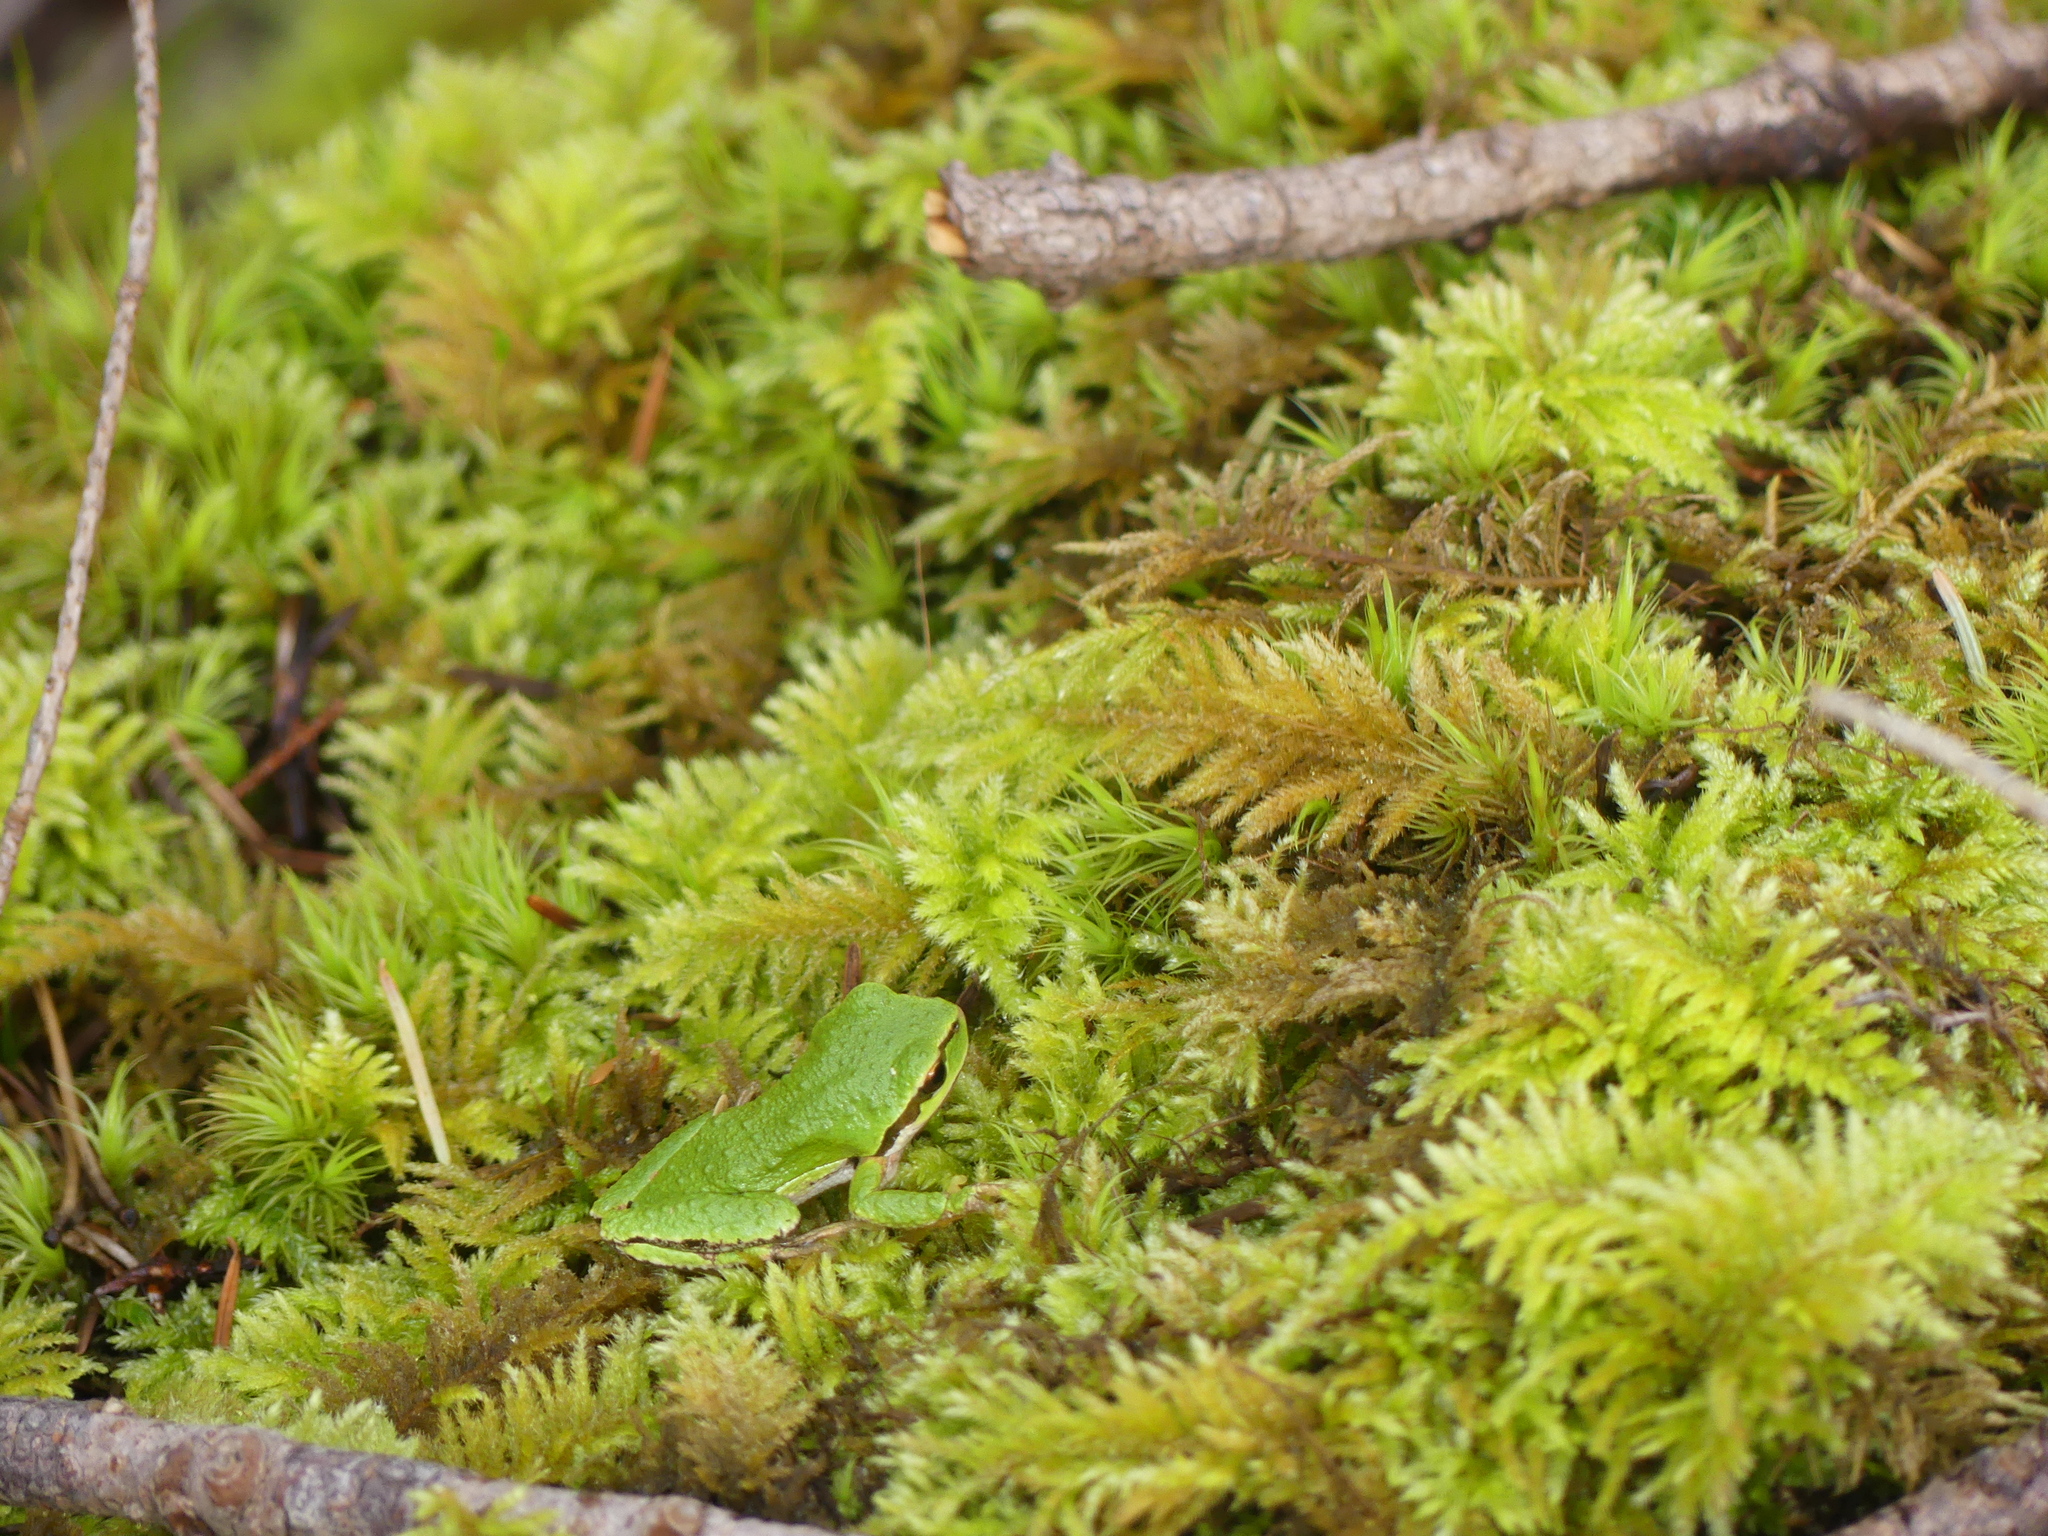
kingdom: Animalia
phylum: Chordata
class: Amphibia
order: Anura
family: Hylidae
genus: Pseudacris
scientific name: Pseudacris regilla
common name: Pacific chorus frog
